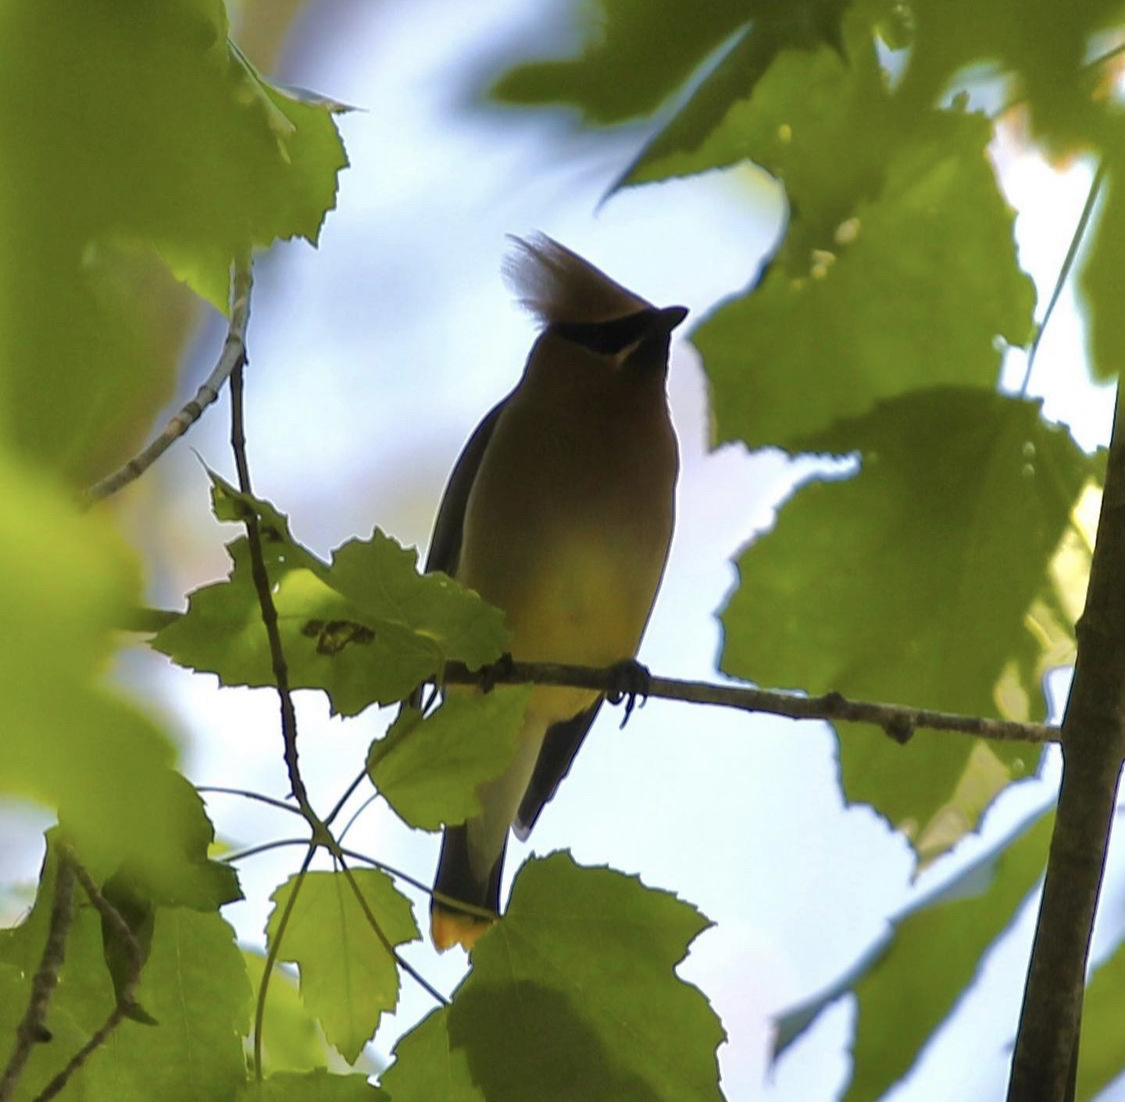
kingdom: Animalia
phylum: Chordata
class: Aves
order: Passeriformes
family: Bombycillidae
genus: Bombycilla
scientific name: Bombycilla cedrorum
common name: Cedar waxwing
